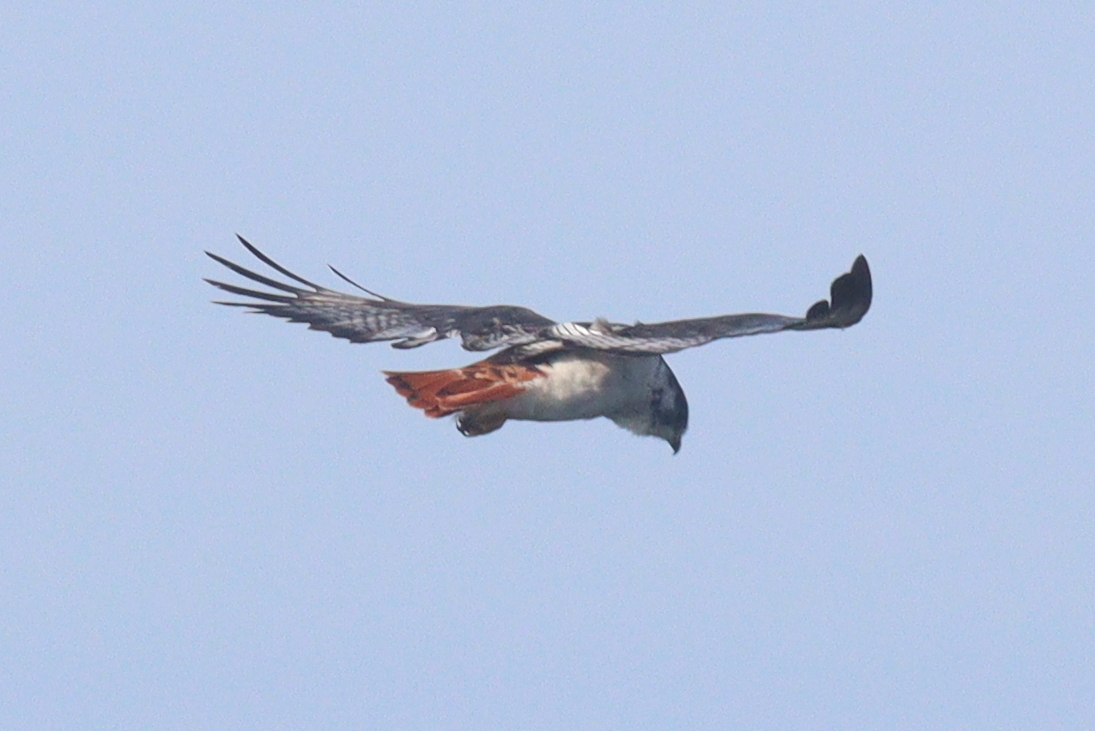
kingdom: Animalia
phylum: Chordata
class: Aves
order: Accipitriformes
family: Accipitridae
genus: Buteo
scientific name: Buteo augur
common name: Augur buzzard
